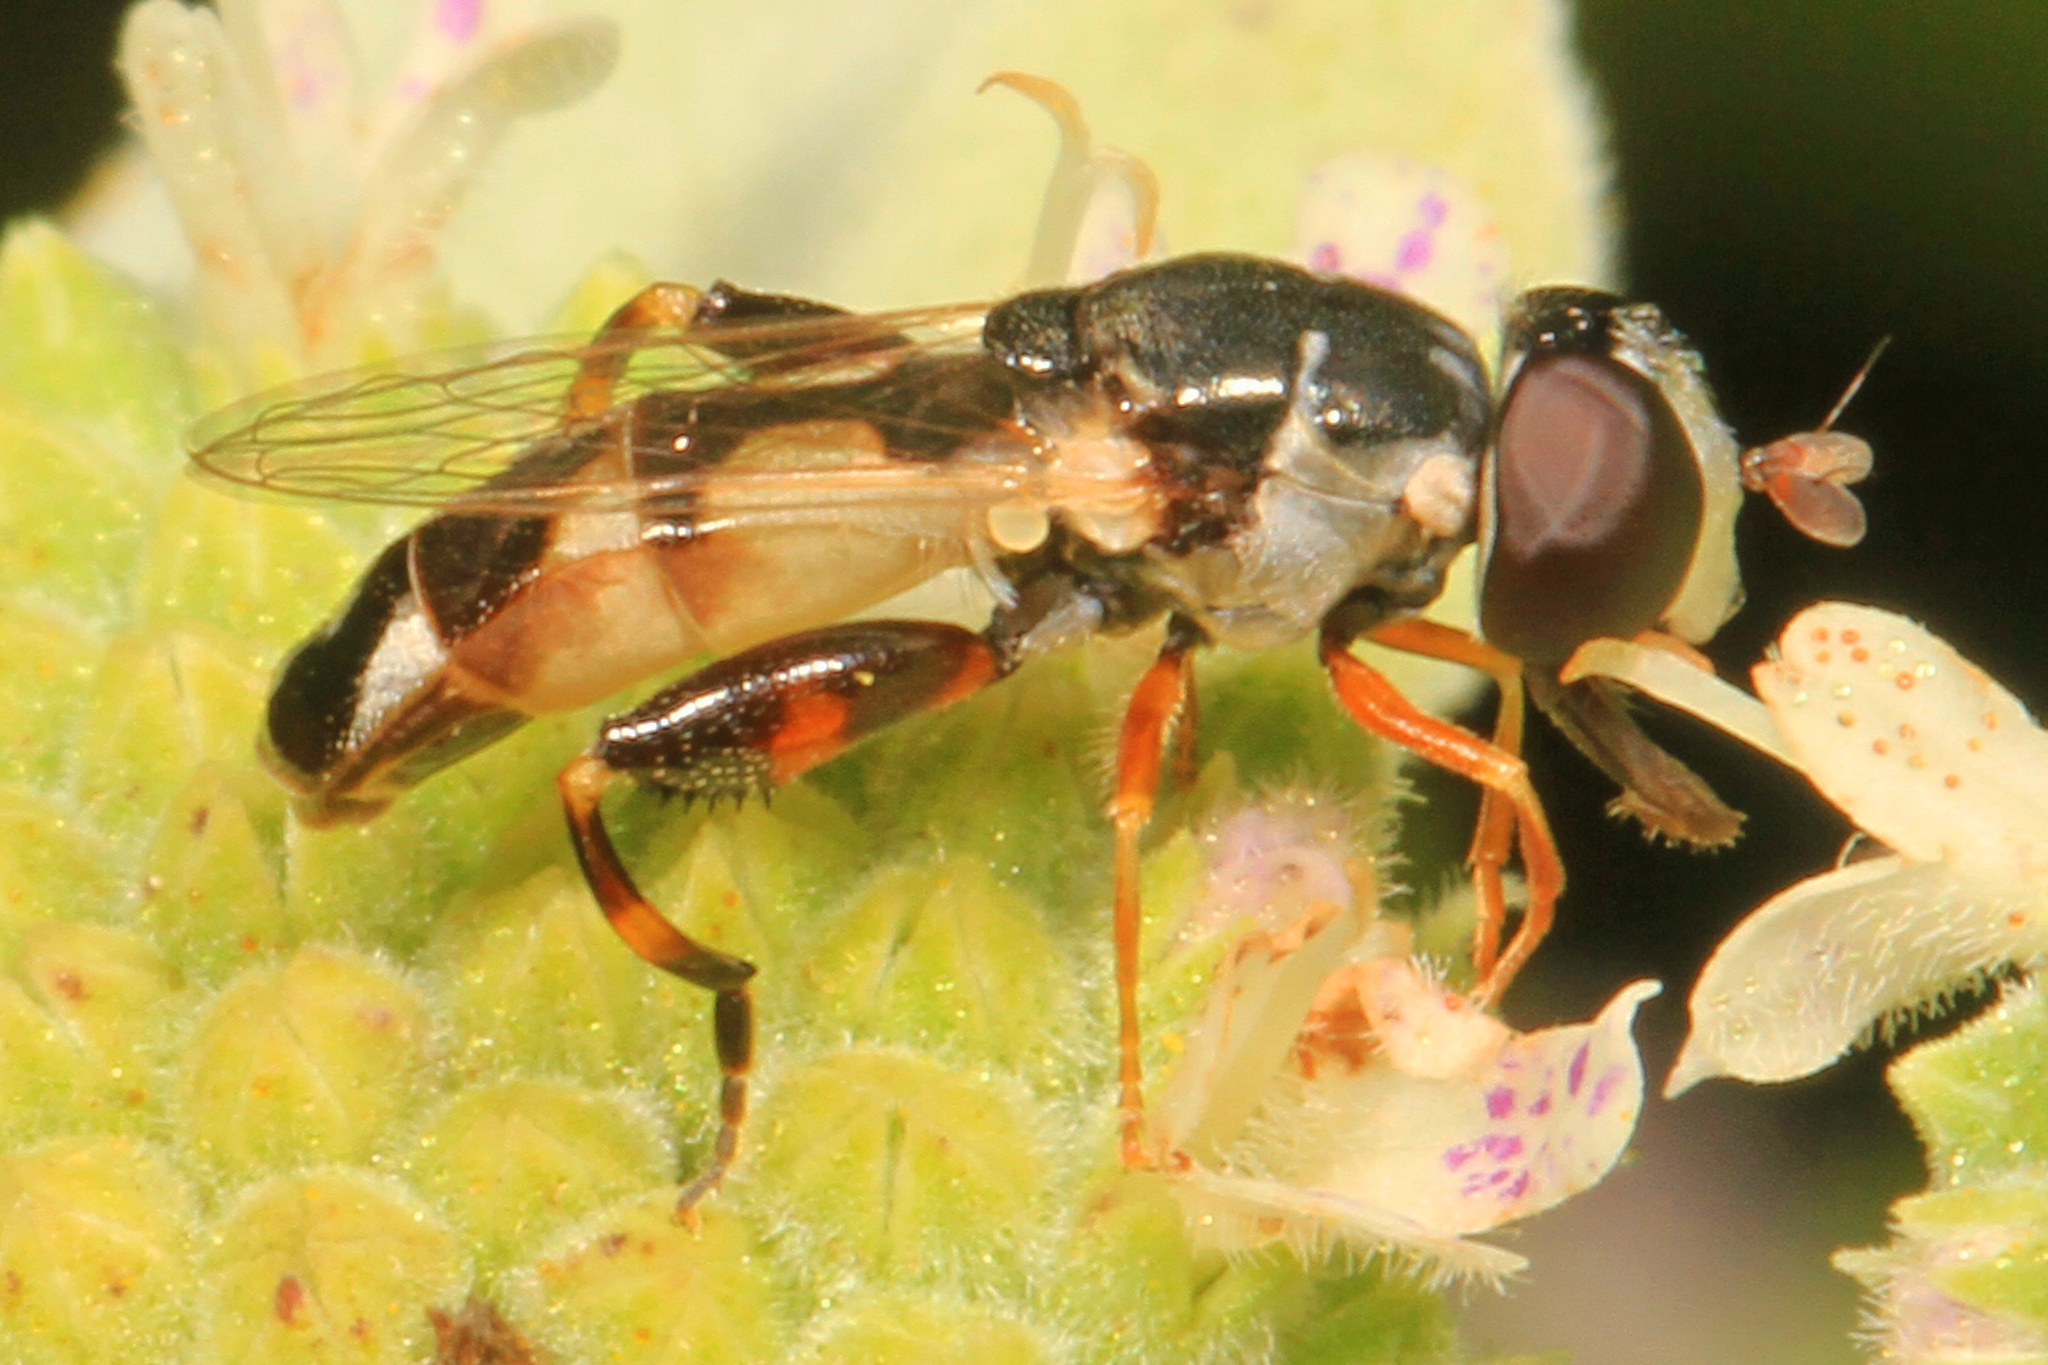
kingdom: Animalia
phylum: Arthropoda
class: Insecta
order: Diptera
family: Syrphidae
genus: Syritta
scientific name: Syritta pipiens
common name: Hover fly
